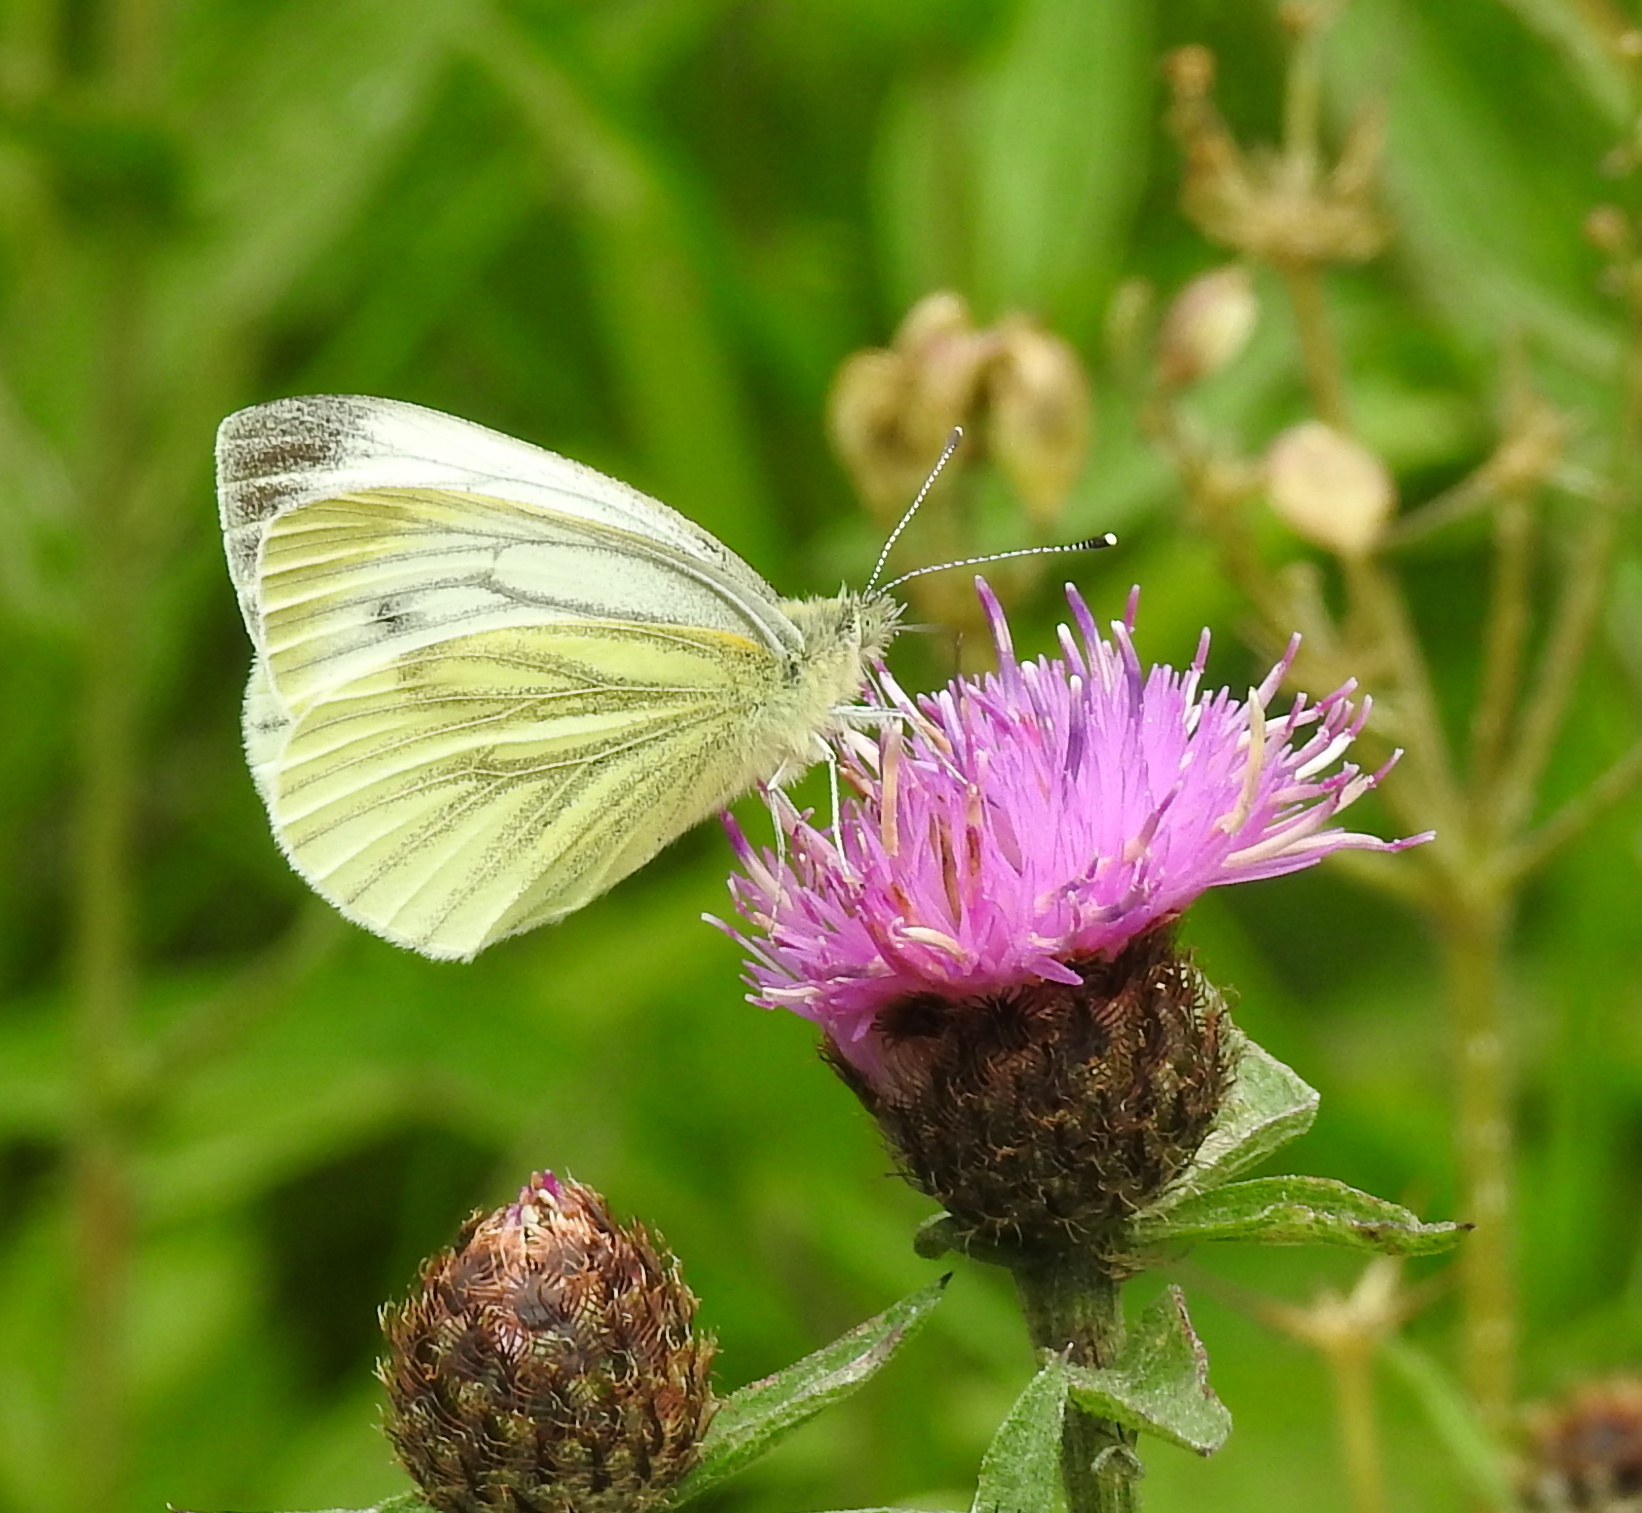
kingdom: Animalia
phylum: Arthropoda
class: Insecta
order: Lepidoptera
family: Pieridae
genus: Pieris
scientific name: Pieris napi
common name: Green-veined white
